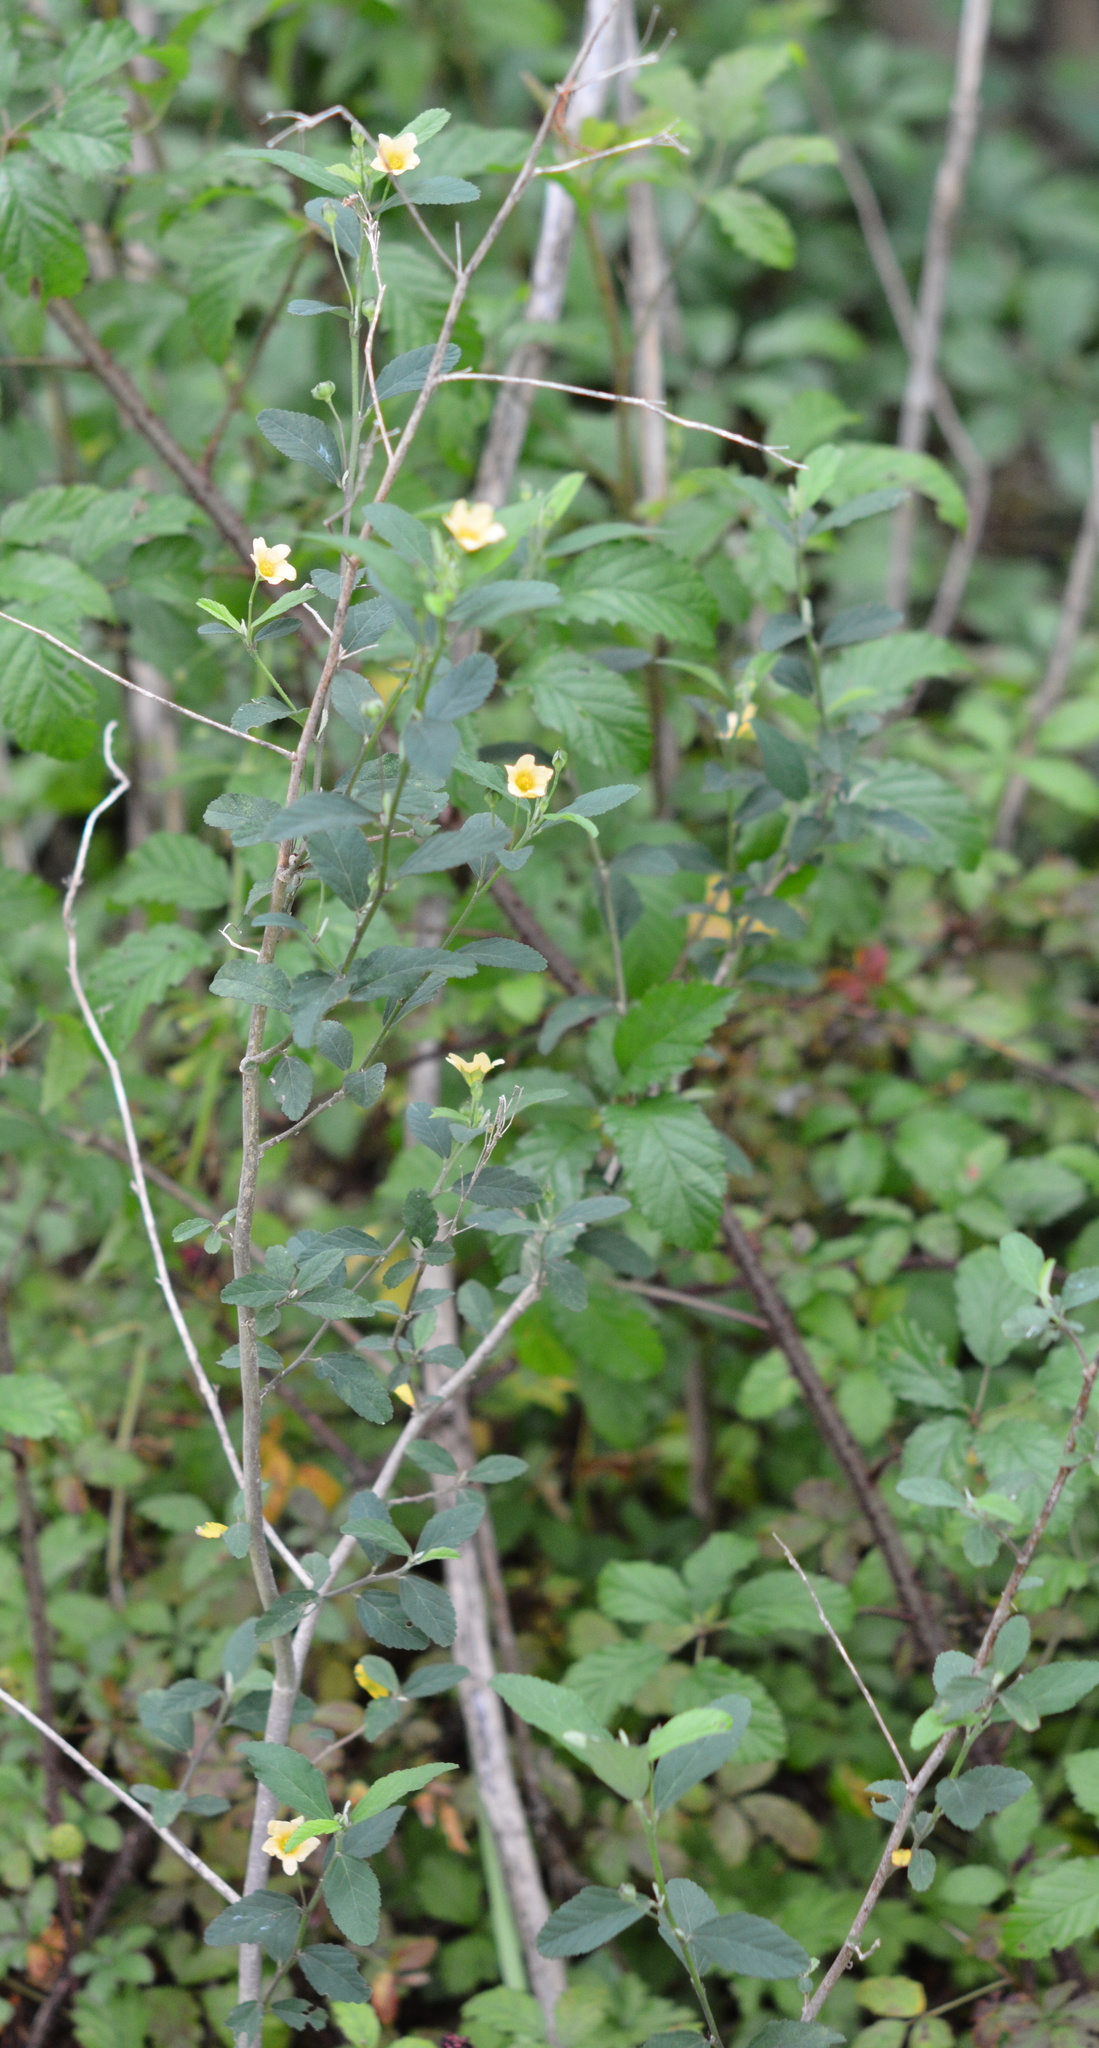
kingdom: Plantae
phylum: Tracheophyta
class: Magnoliopsida
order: Malvales
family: Malvaceae
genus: Sida
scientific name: Sida rhombifolia
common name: Queensland-hemp
